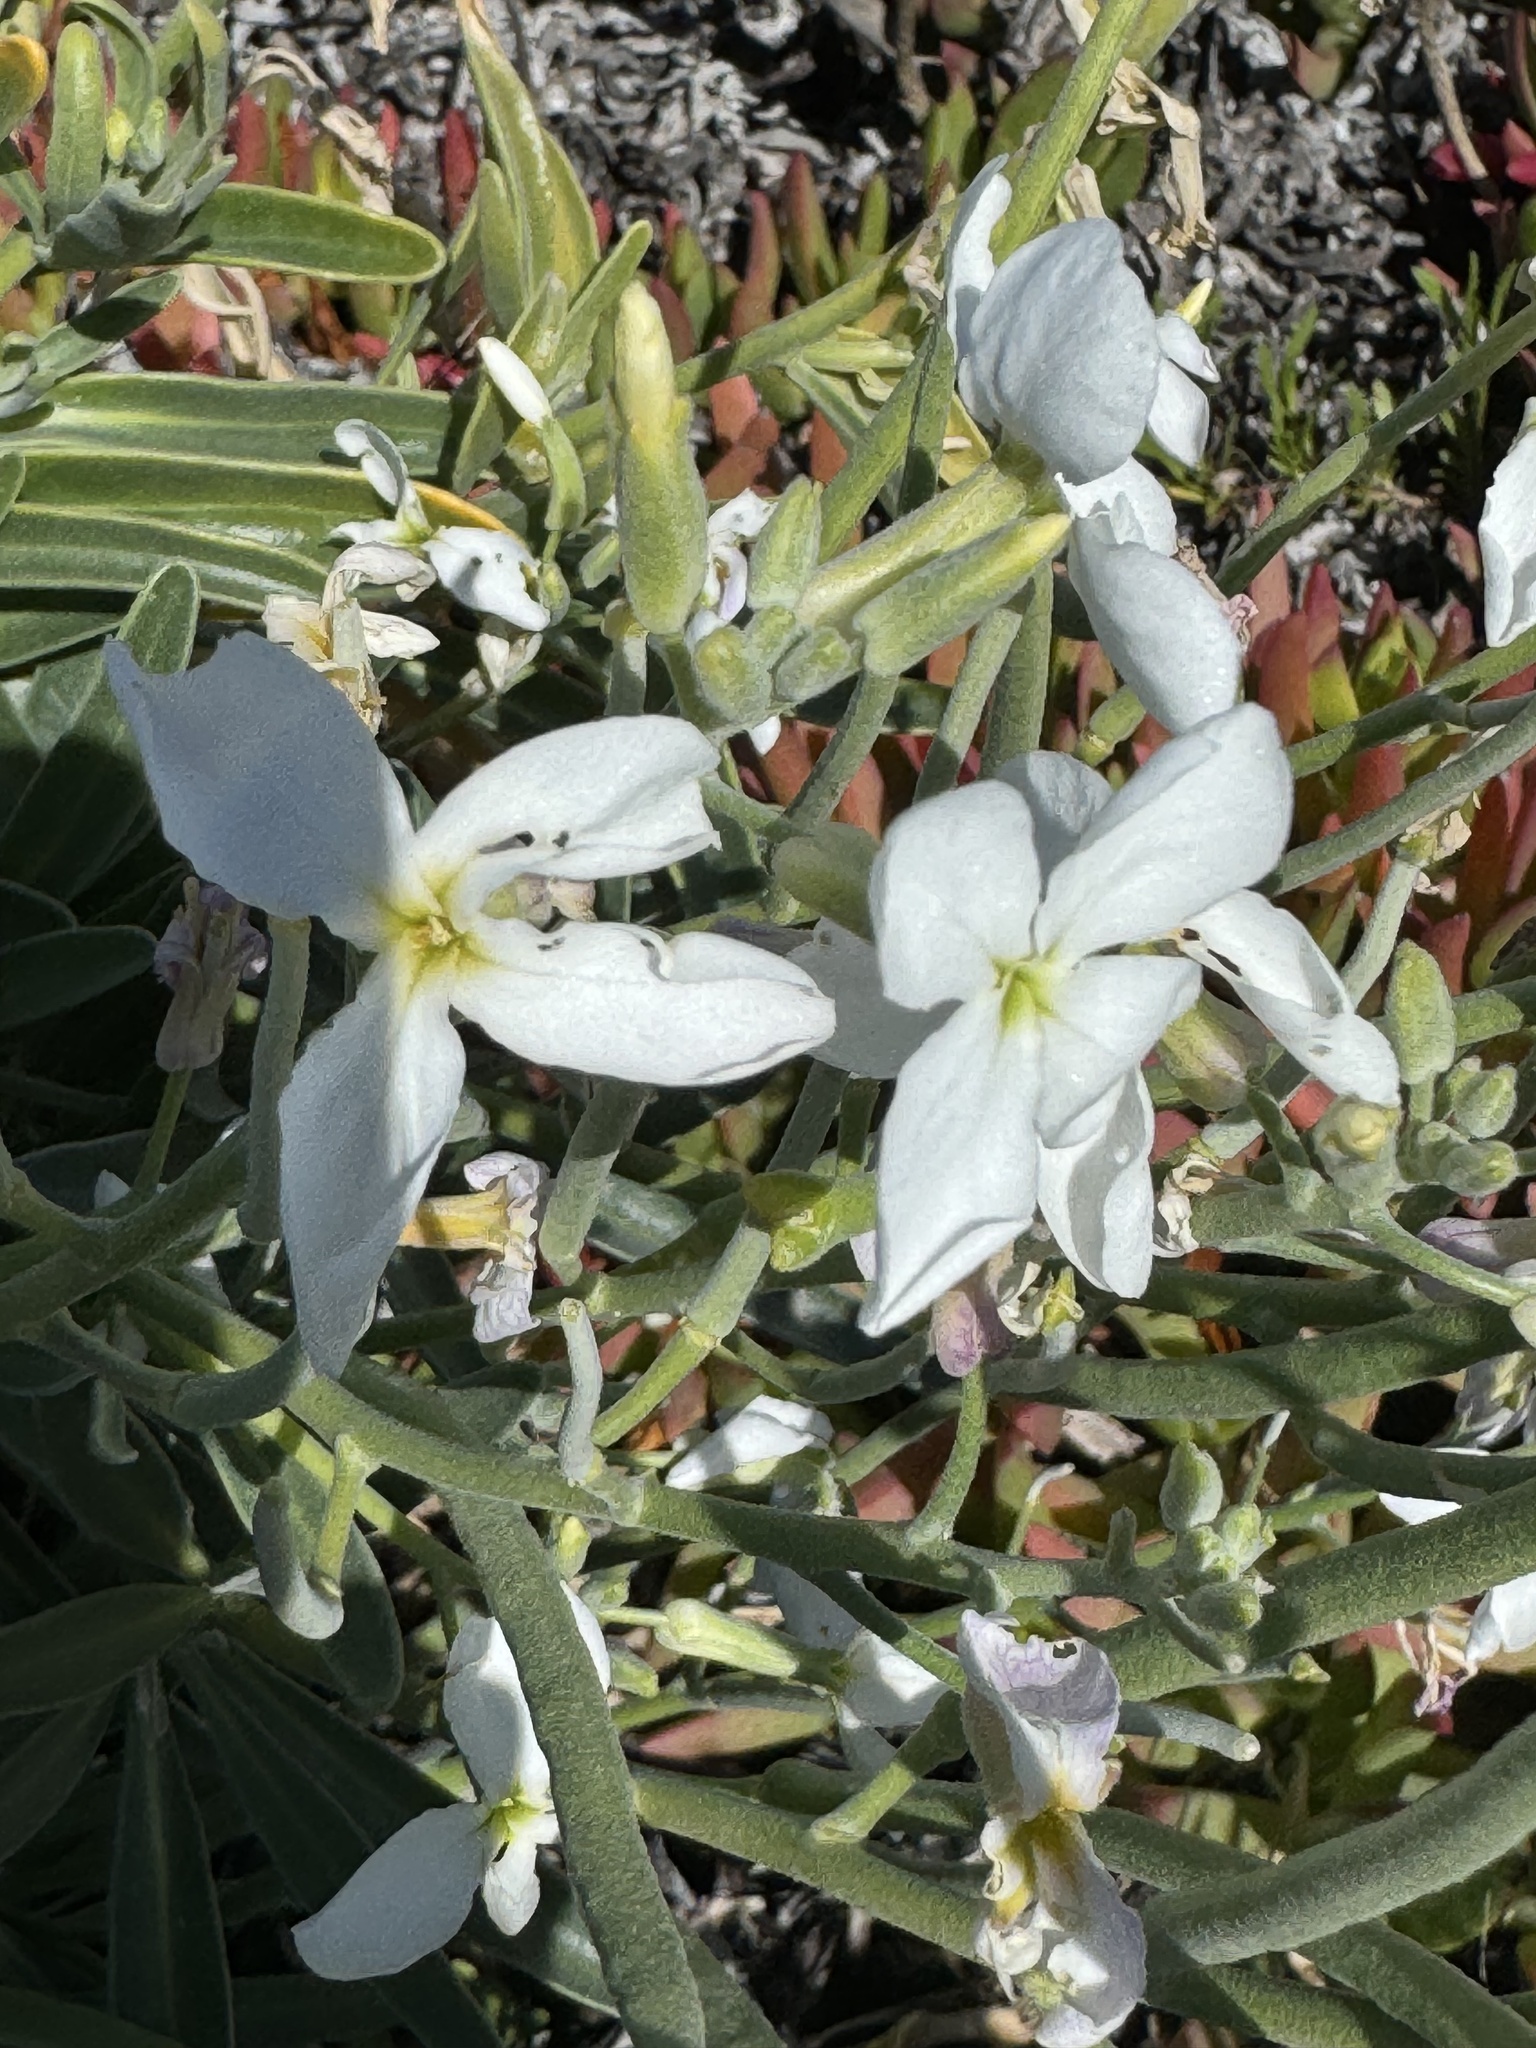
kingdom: Plantae
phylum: Tracheophyta
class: Magnoliopsida
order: Brassicales
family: Brassicaceae
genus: Matthiola
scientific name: Matthiola incana
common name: Hoary stock
